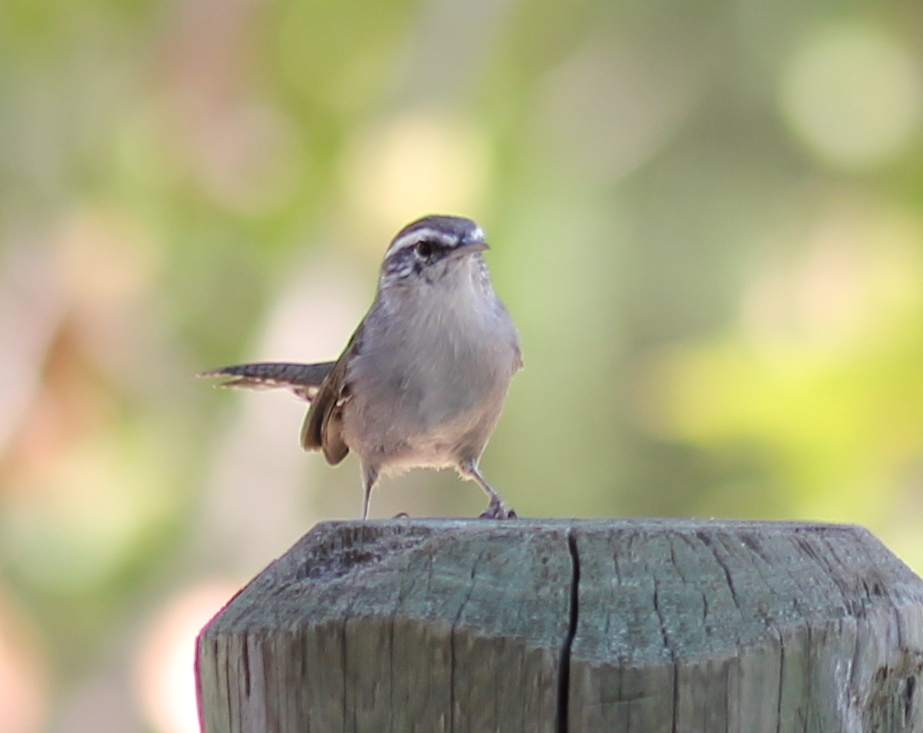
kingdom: Animalia
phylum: Chordata
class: Aves
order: Passeriformes
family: Troglodytidae
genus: Thryomanes
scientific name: Thryomanes bewickii
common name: Bewick's wren
